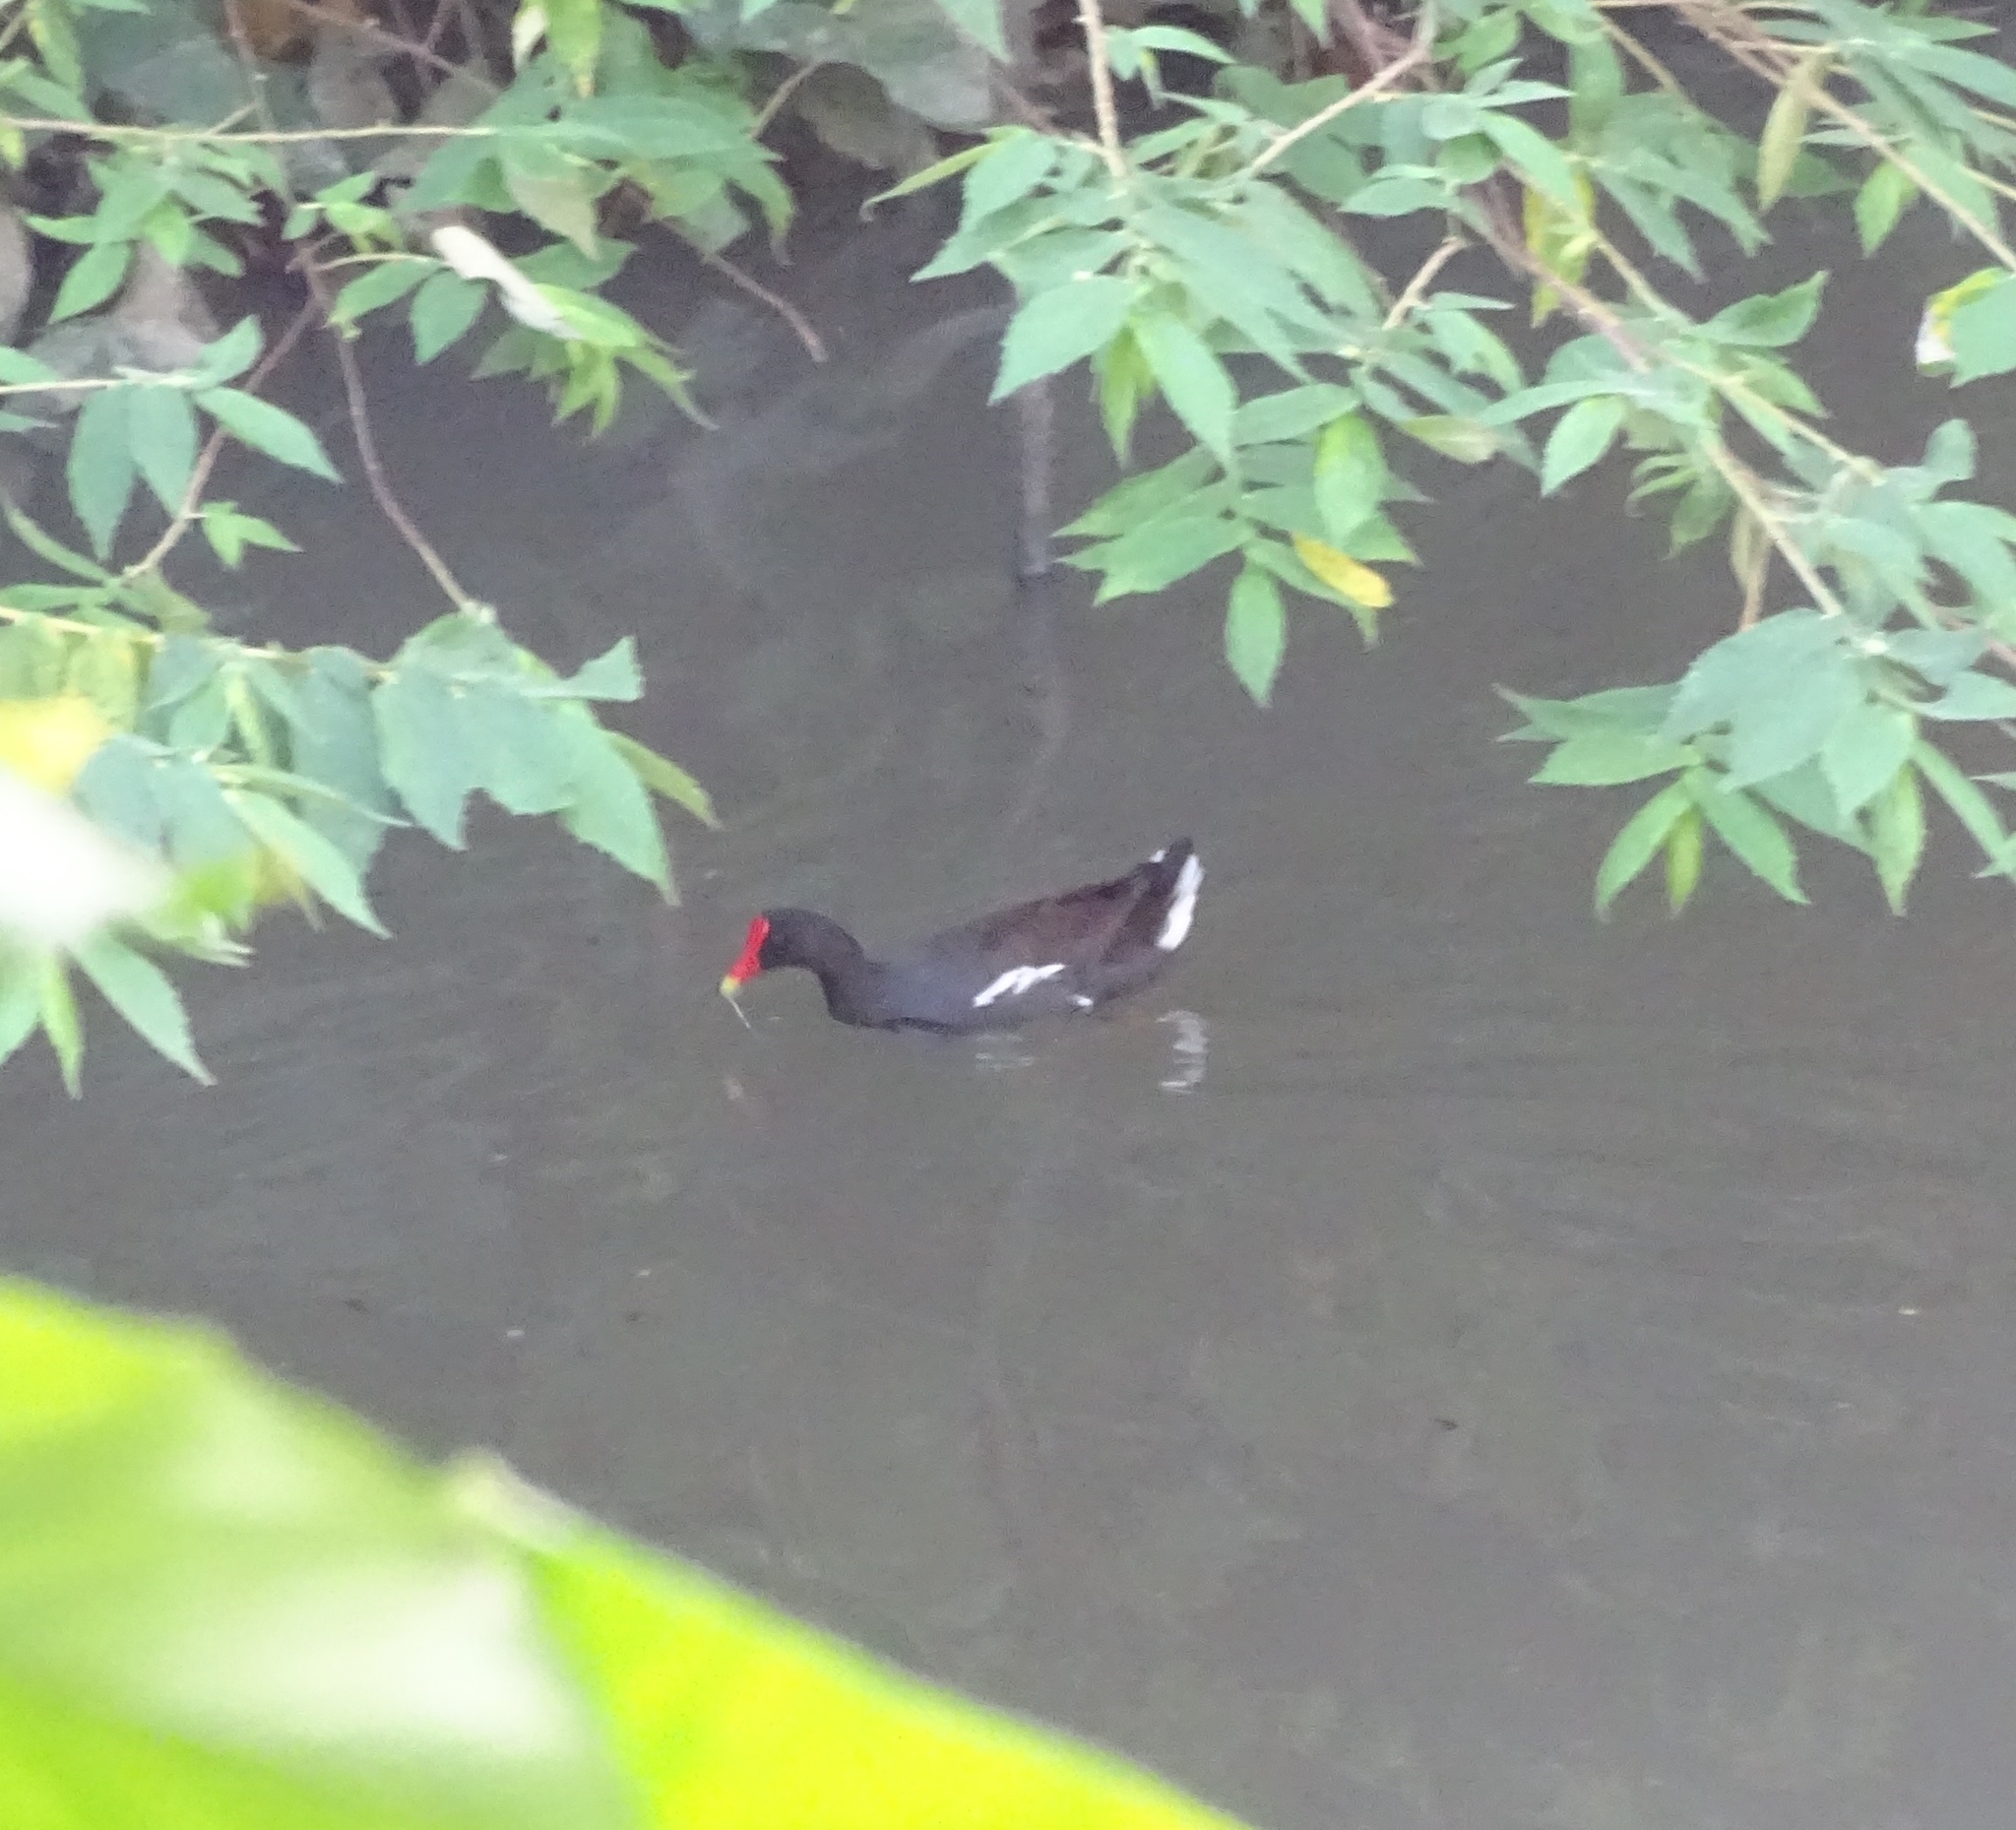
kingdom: Animalia
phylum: Chordata
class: Aves
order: Gruiformes
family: Rallidae
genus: Gallinula
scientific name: Gallinula chloropus
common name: Common moorhen
